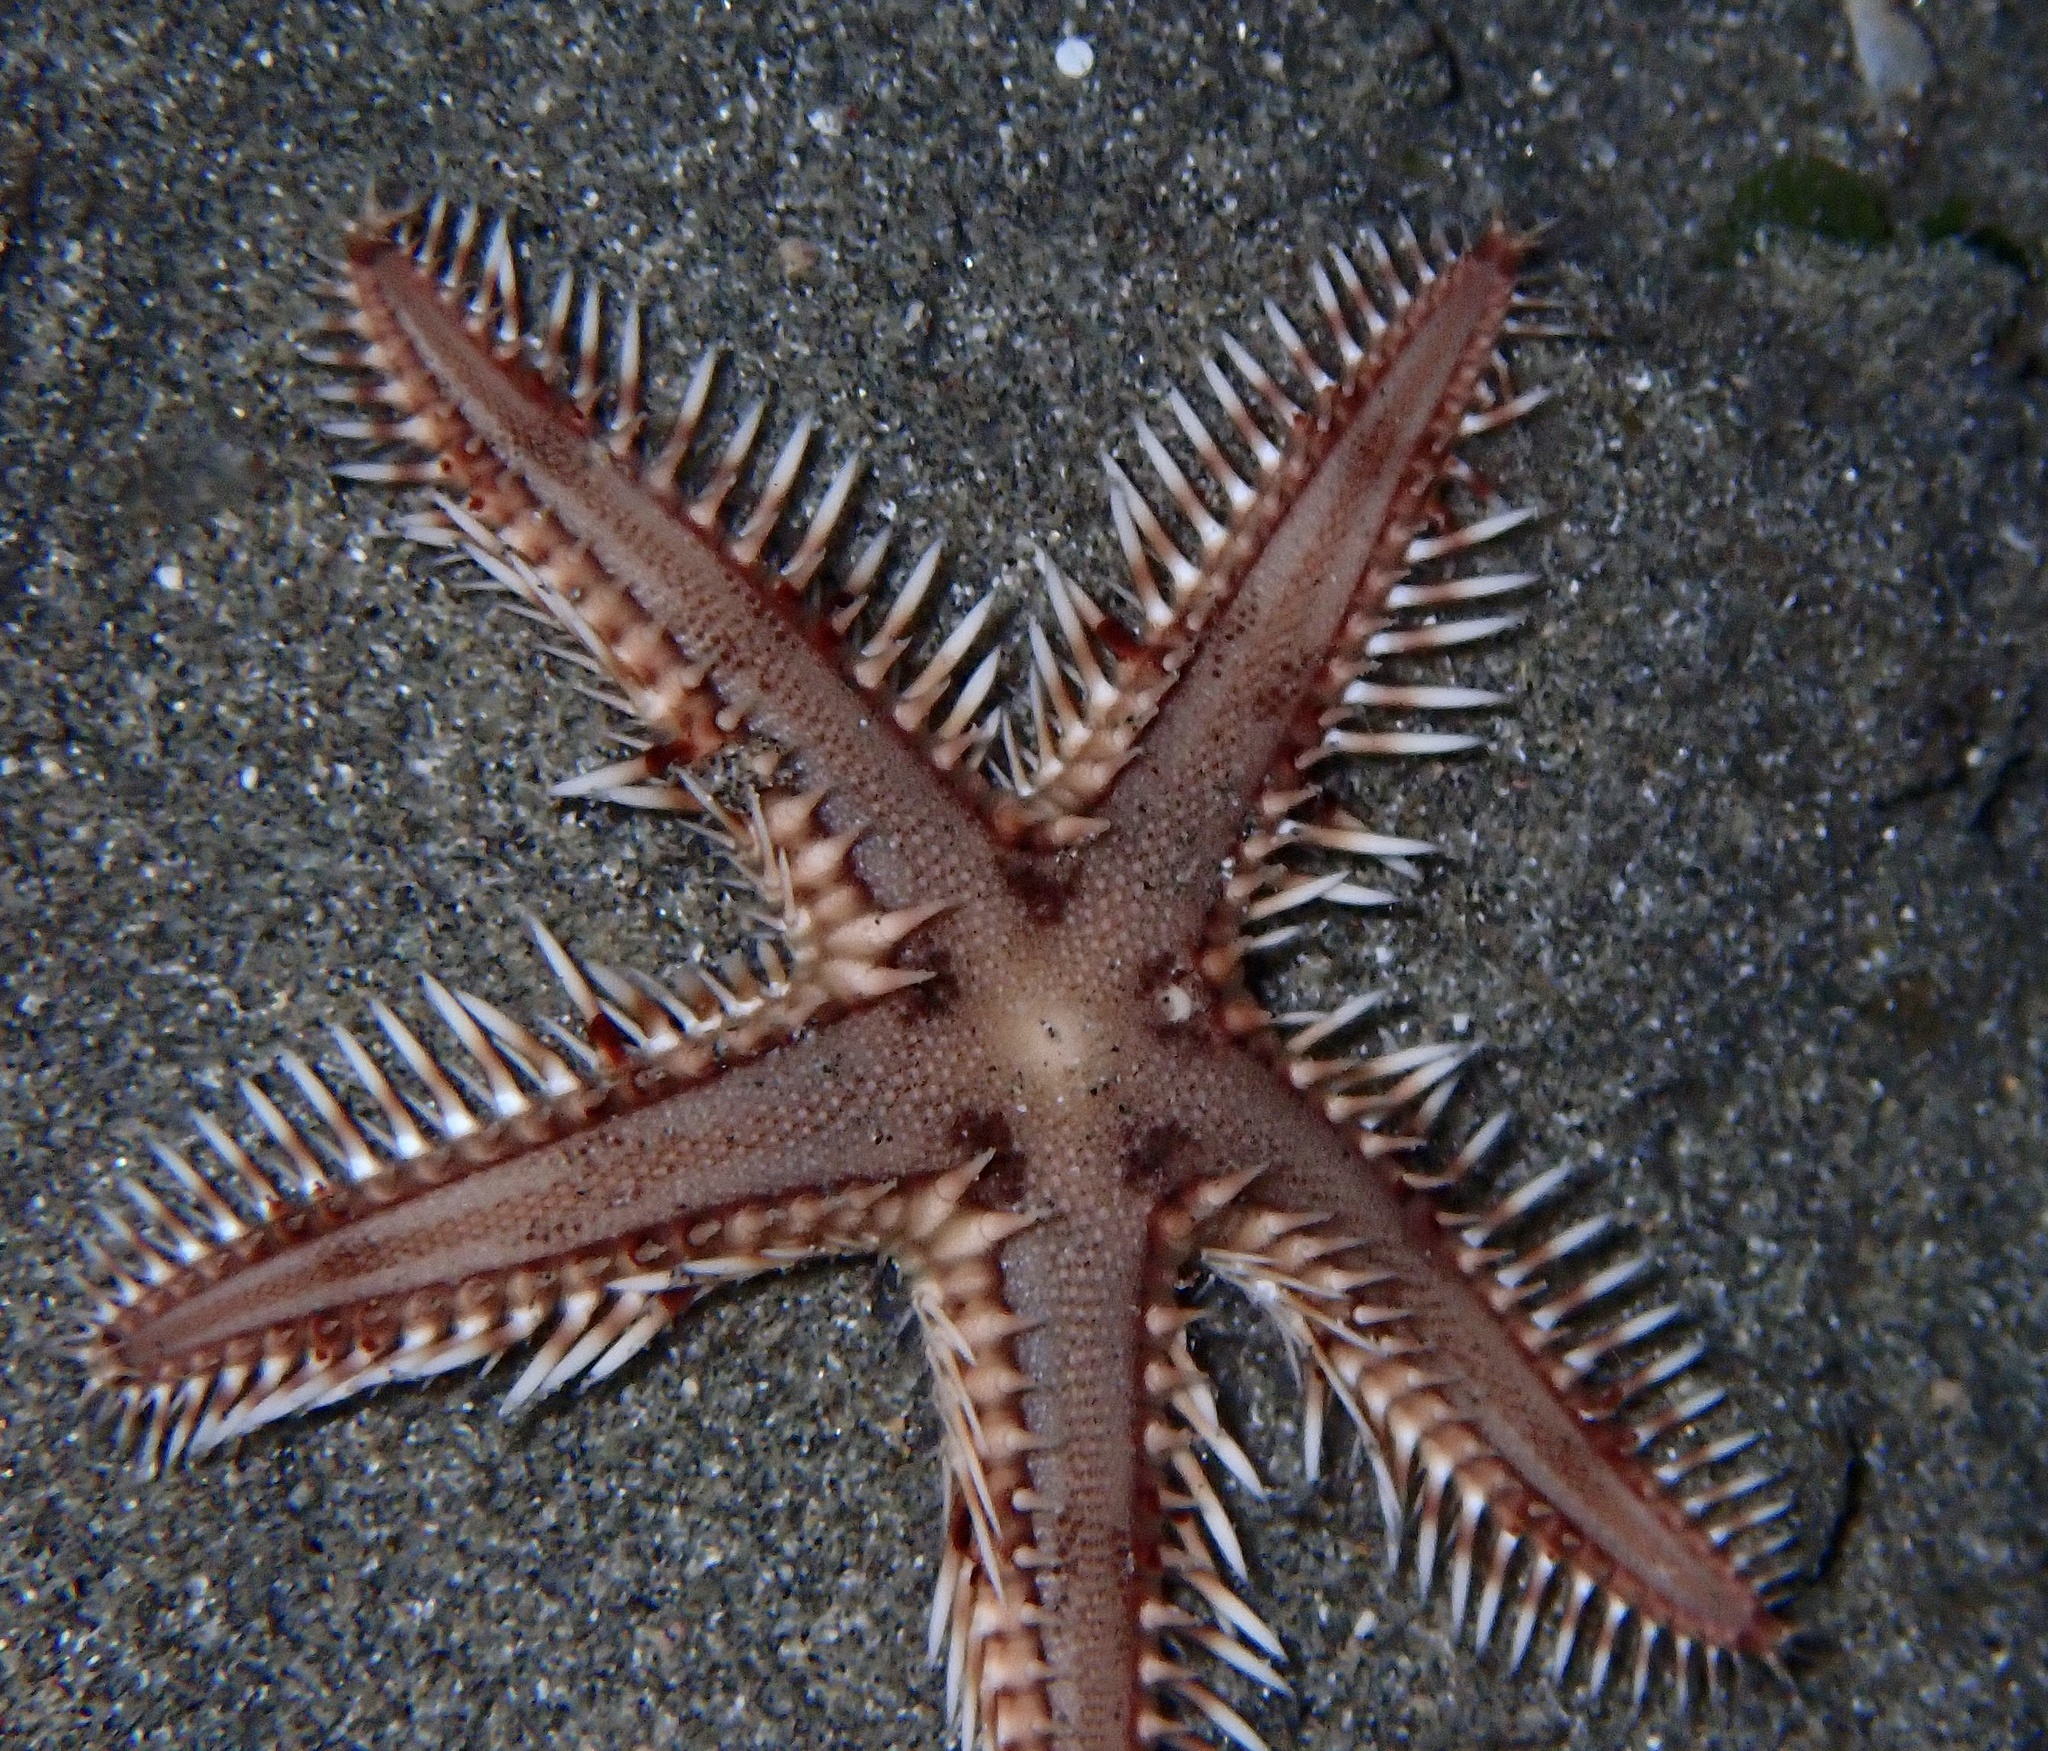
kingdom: Animalia
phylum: Echinodermata
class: Asteroidea
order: Paxillosida
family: Astropectinidae
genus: Astropecten
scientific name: Astropecten polyacanthus
